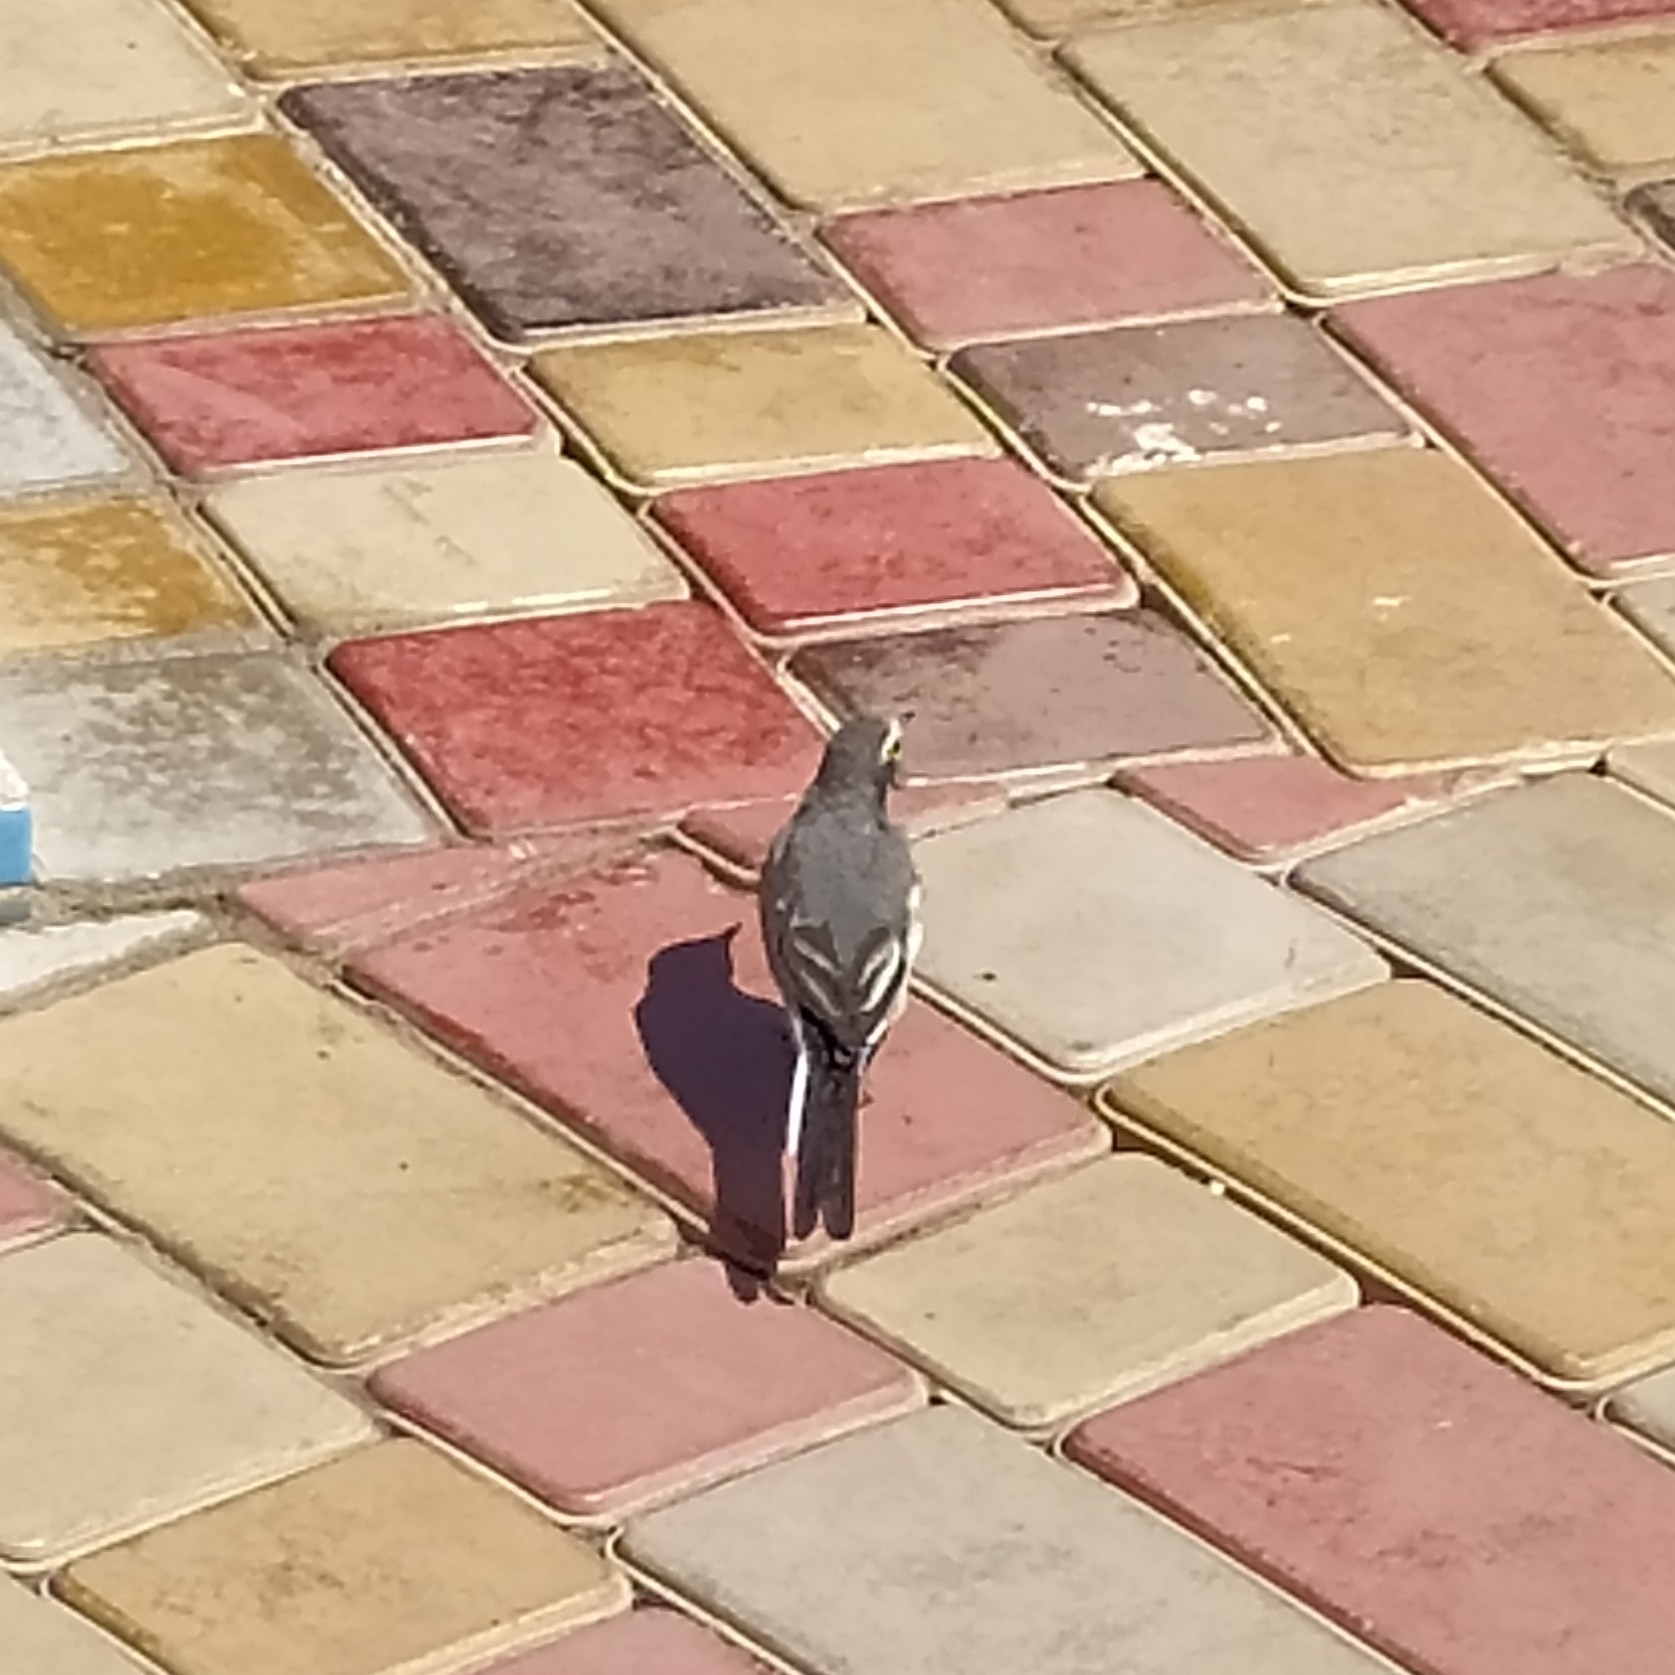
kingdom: Animalia
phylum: Chordata
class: Aves
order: Passeriformes
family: Motacillidae
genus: Motacilla
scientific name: Motacilla alba
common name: White wagtail
